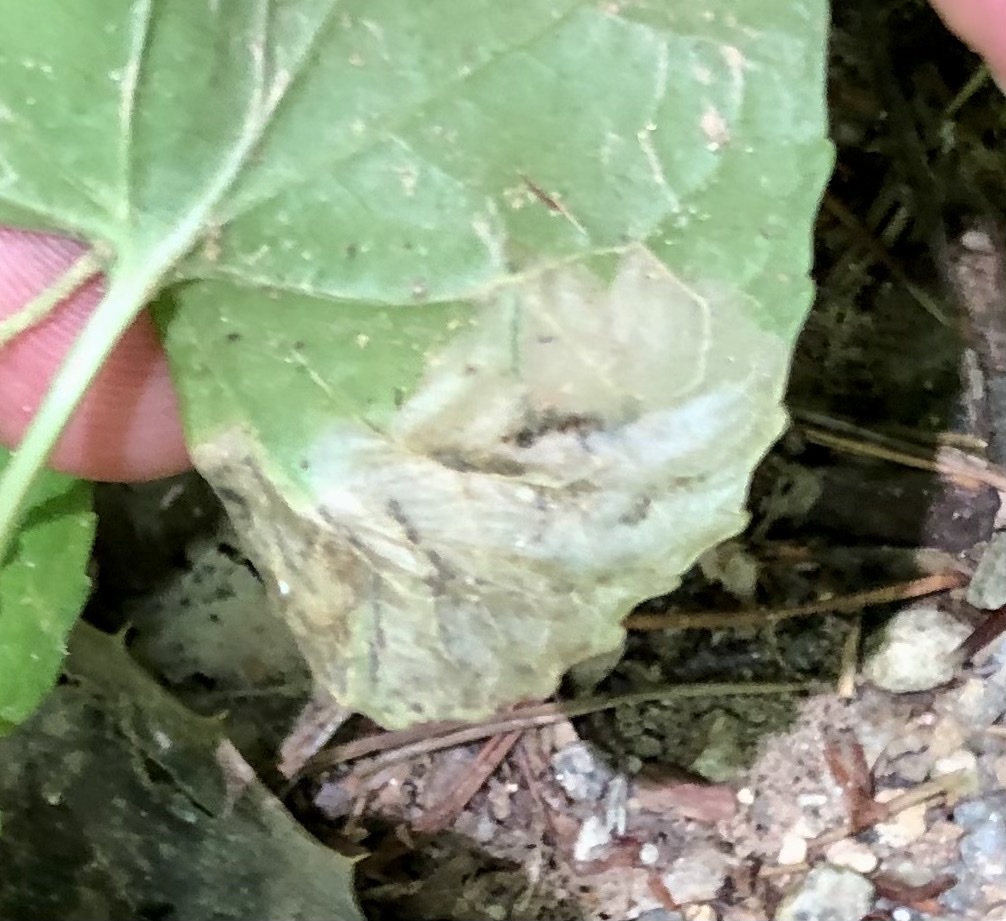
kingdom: Animalia
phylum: Arthropoda
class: Insecta
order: Hymenoptera
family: Tenthredinidae
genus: Nefusa
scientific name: Nefusa ambigua
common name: Violet leafmining sawfly
